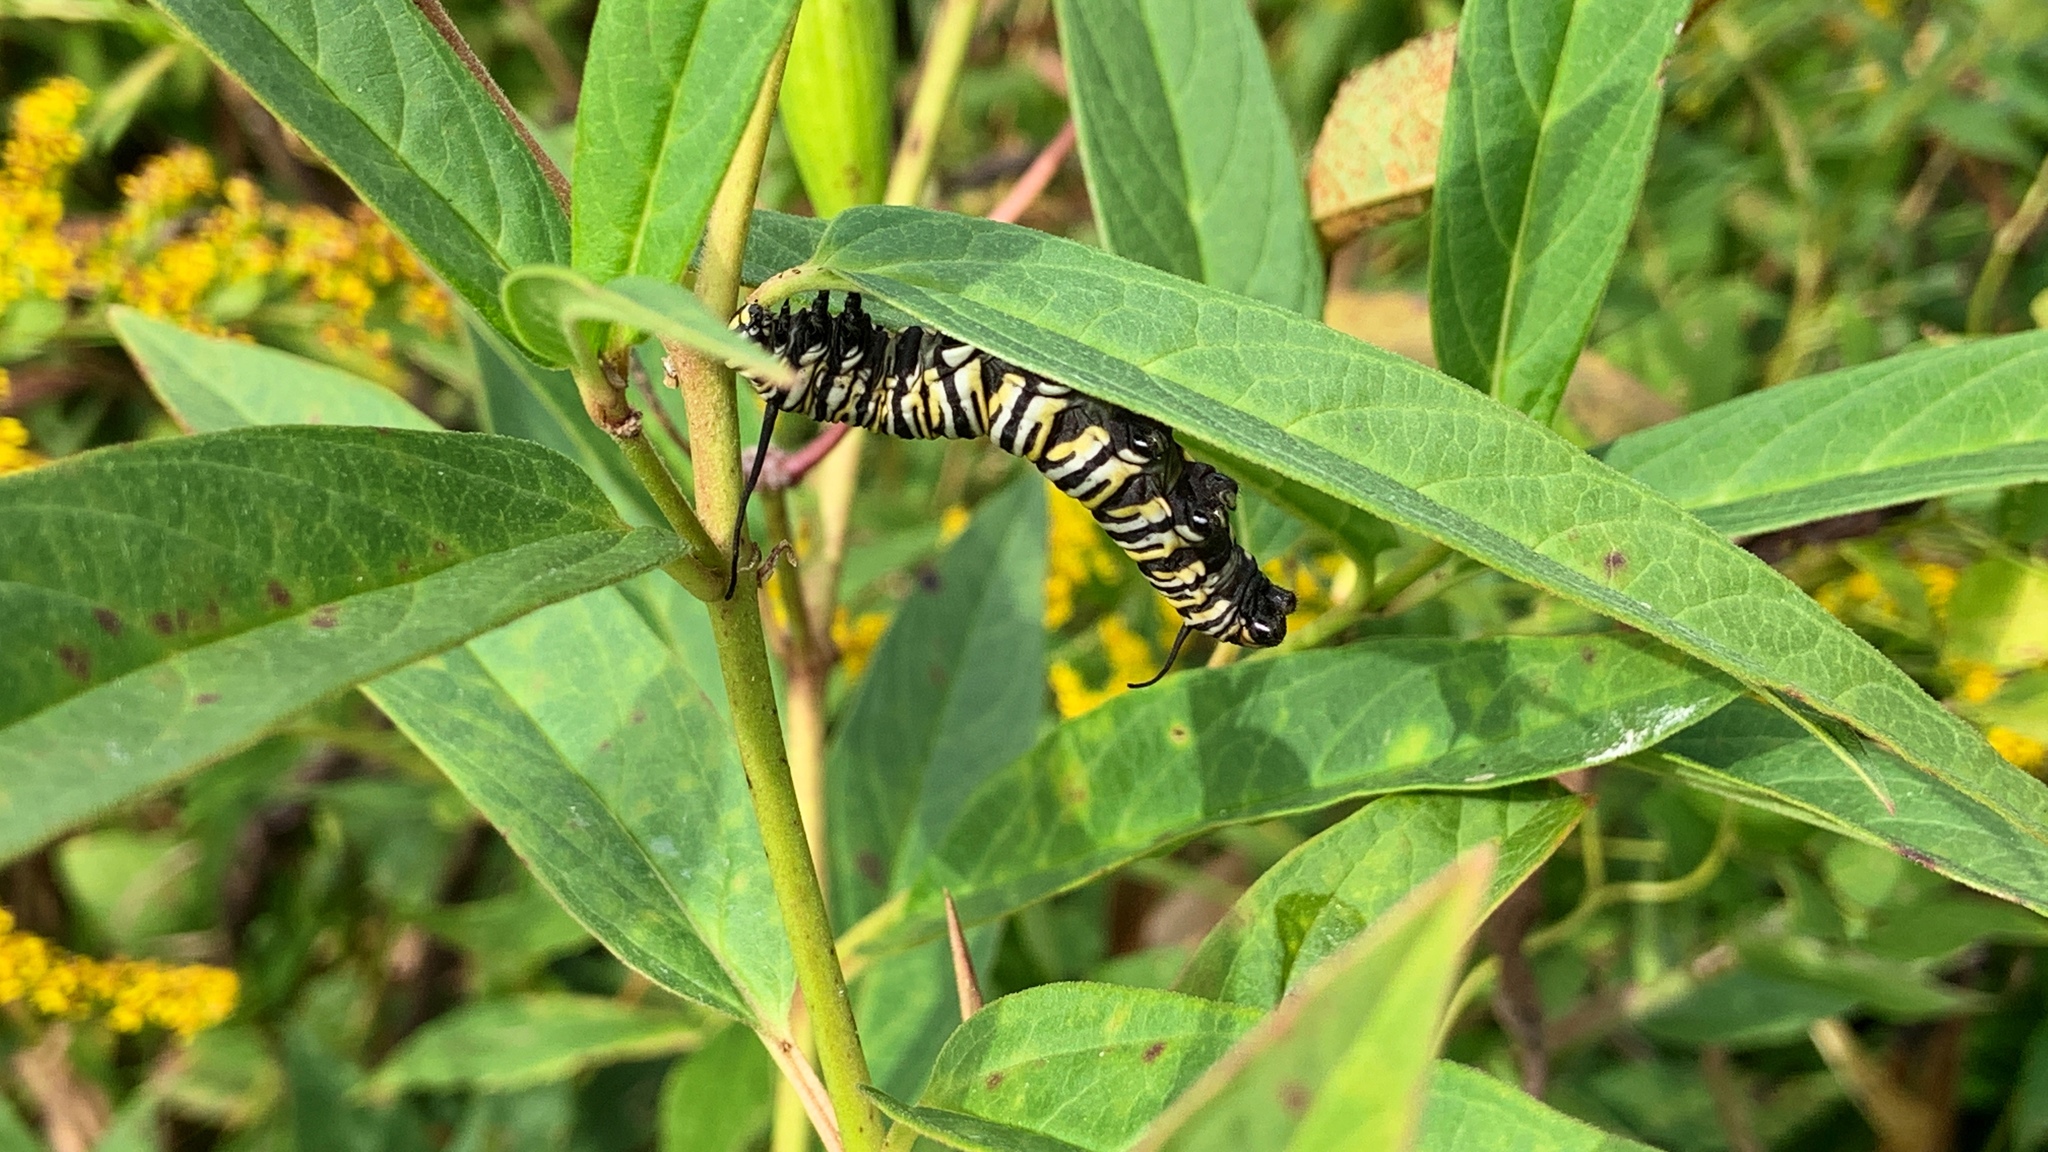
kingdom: Animalia
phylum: Arthropoda
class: Insecta
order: Lepidoptera
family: Nymphalidae
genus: Danaus
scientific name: Danaus plexippus
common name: Monarch
